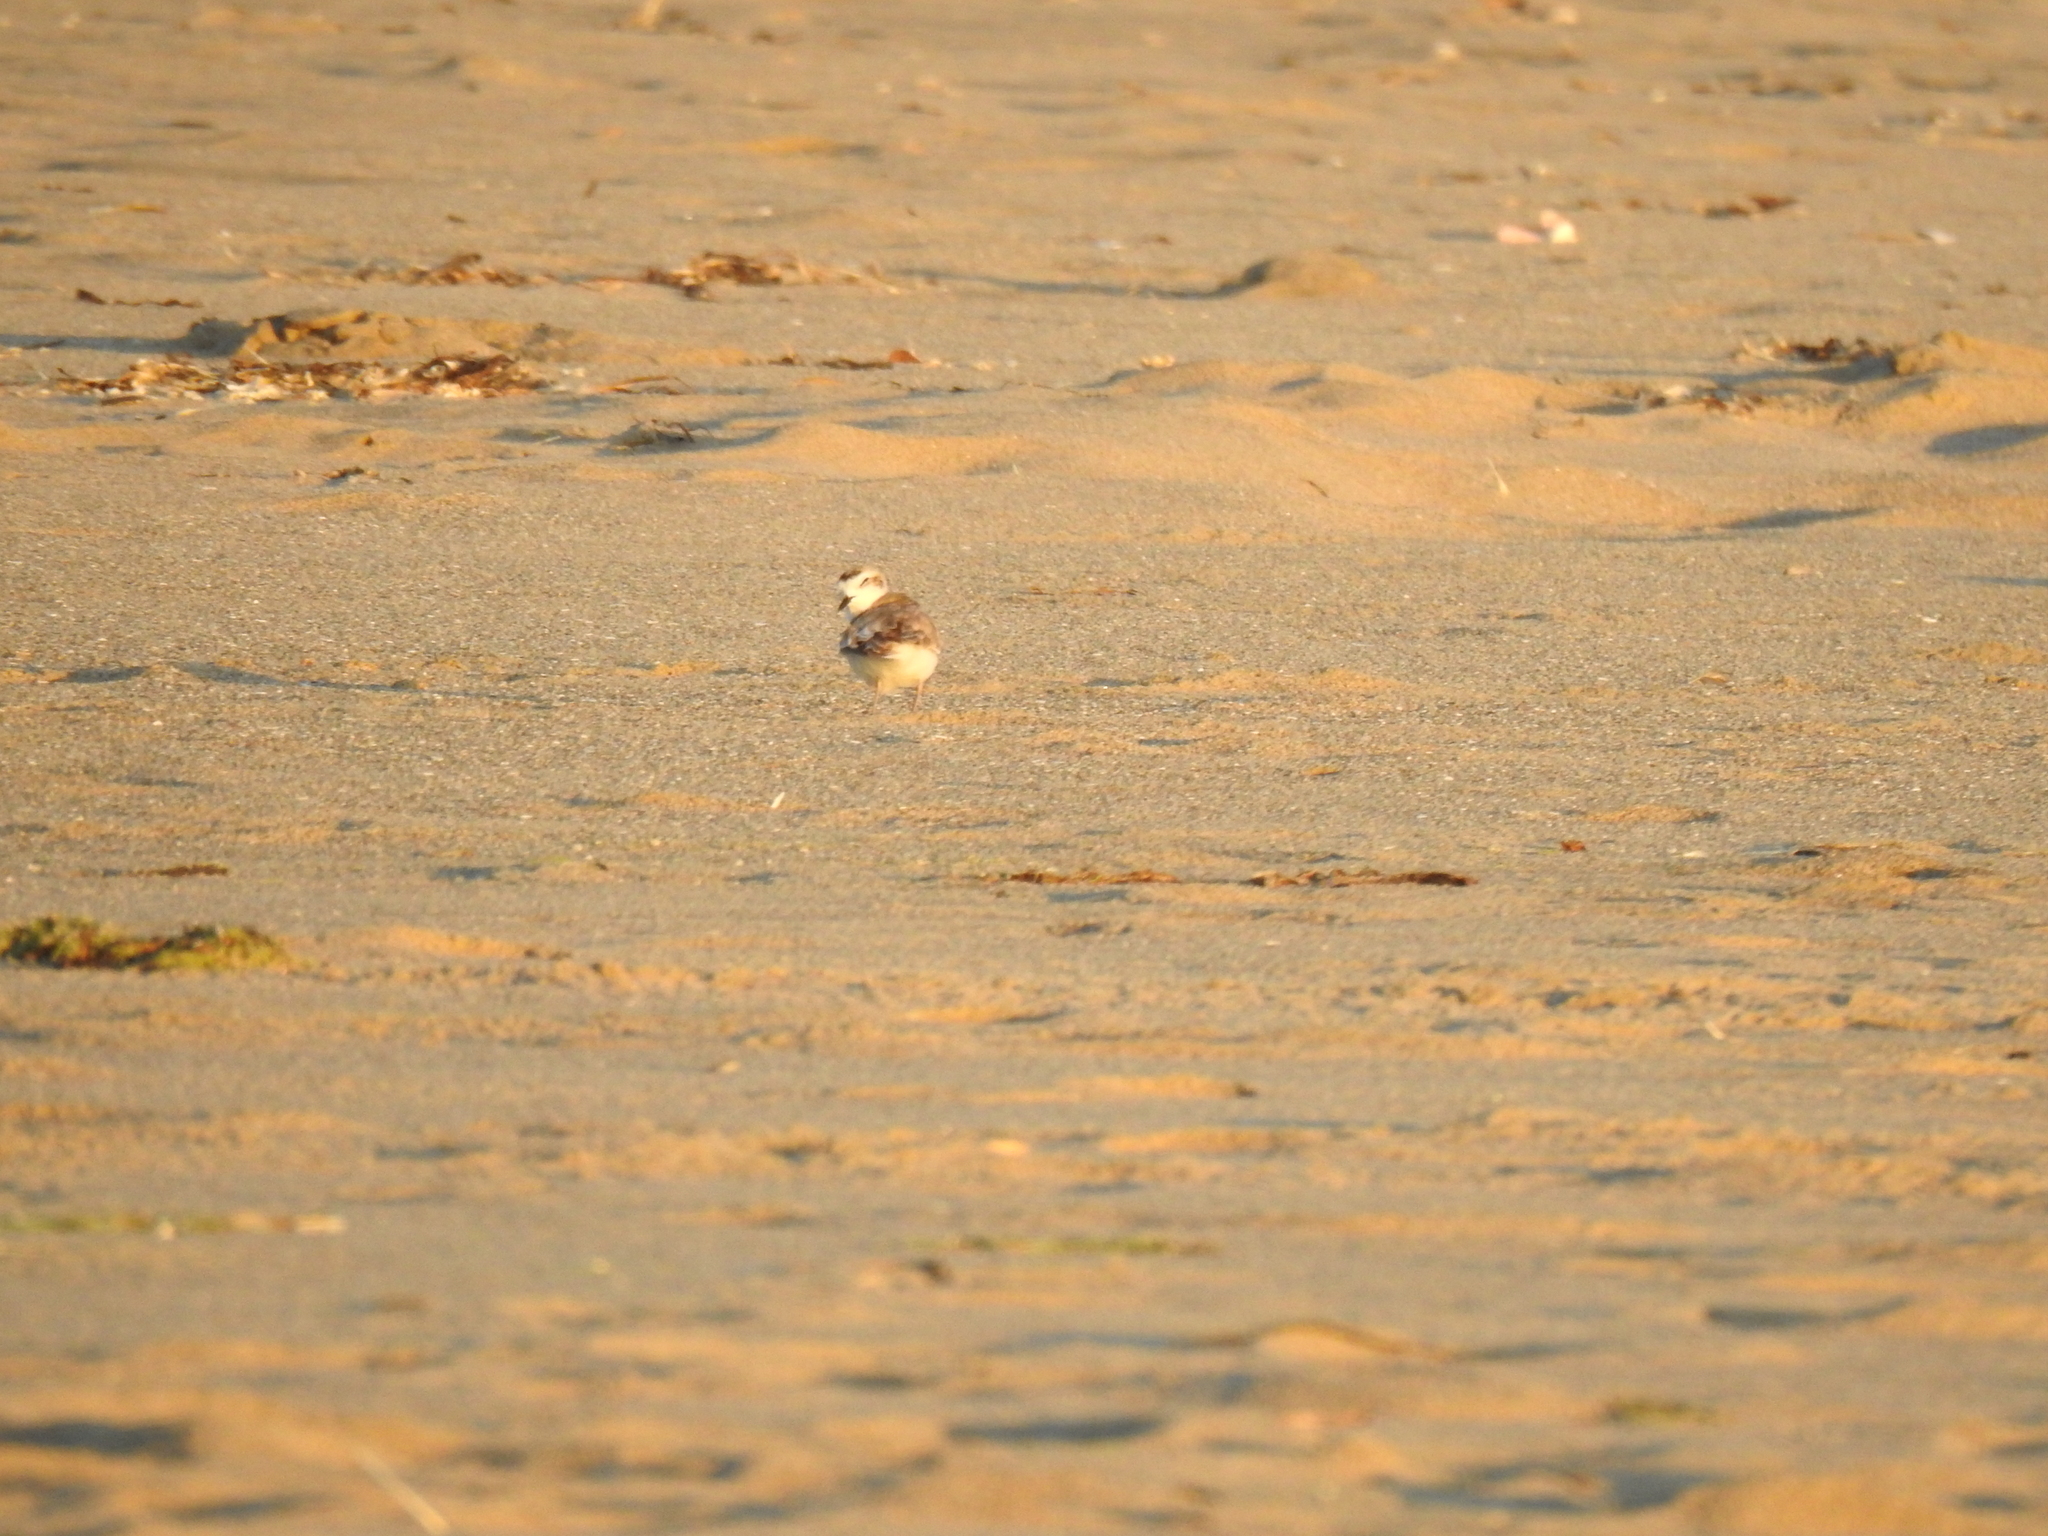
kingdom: Animalia
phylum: Chordata
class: Aves
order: Charadriiformes
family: Charadriidae
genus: Anarhynchus
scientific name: Anarhynchus
